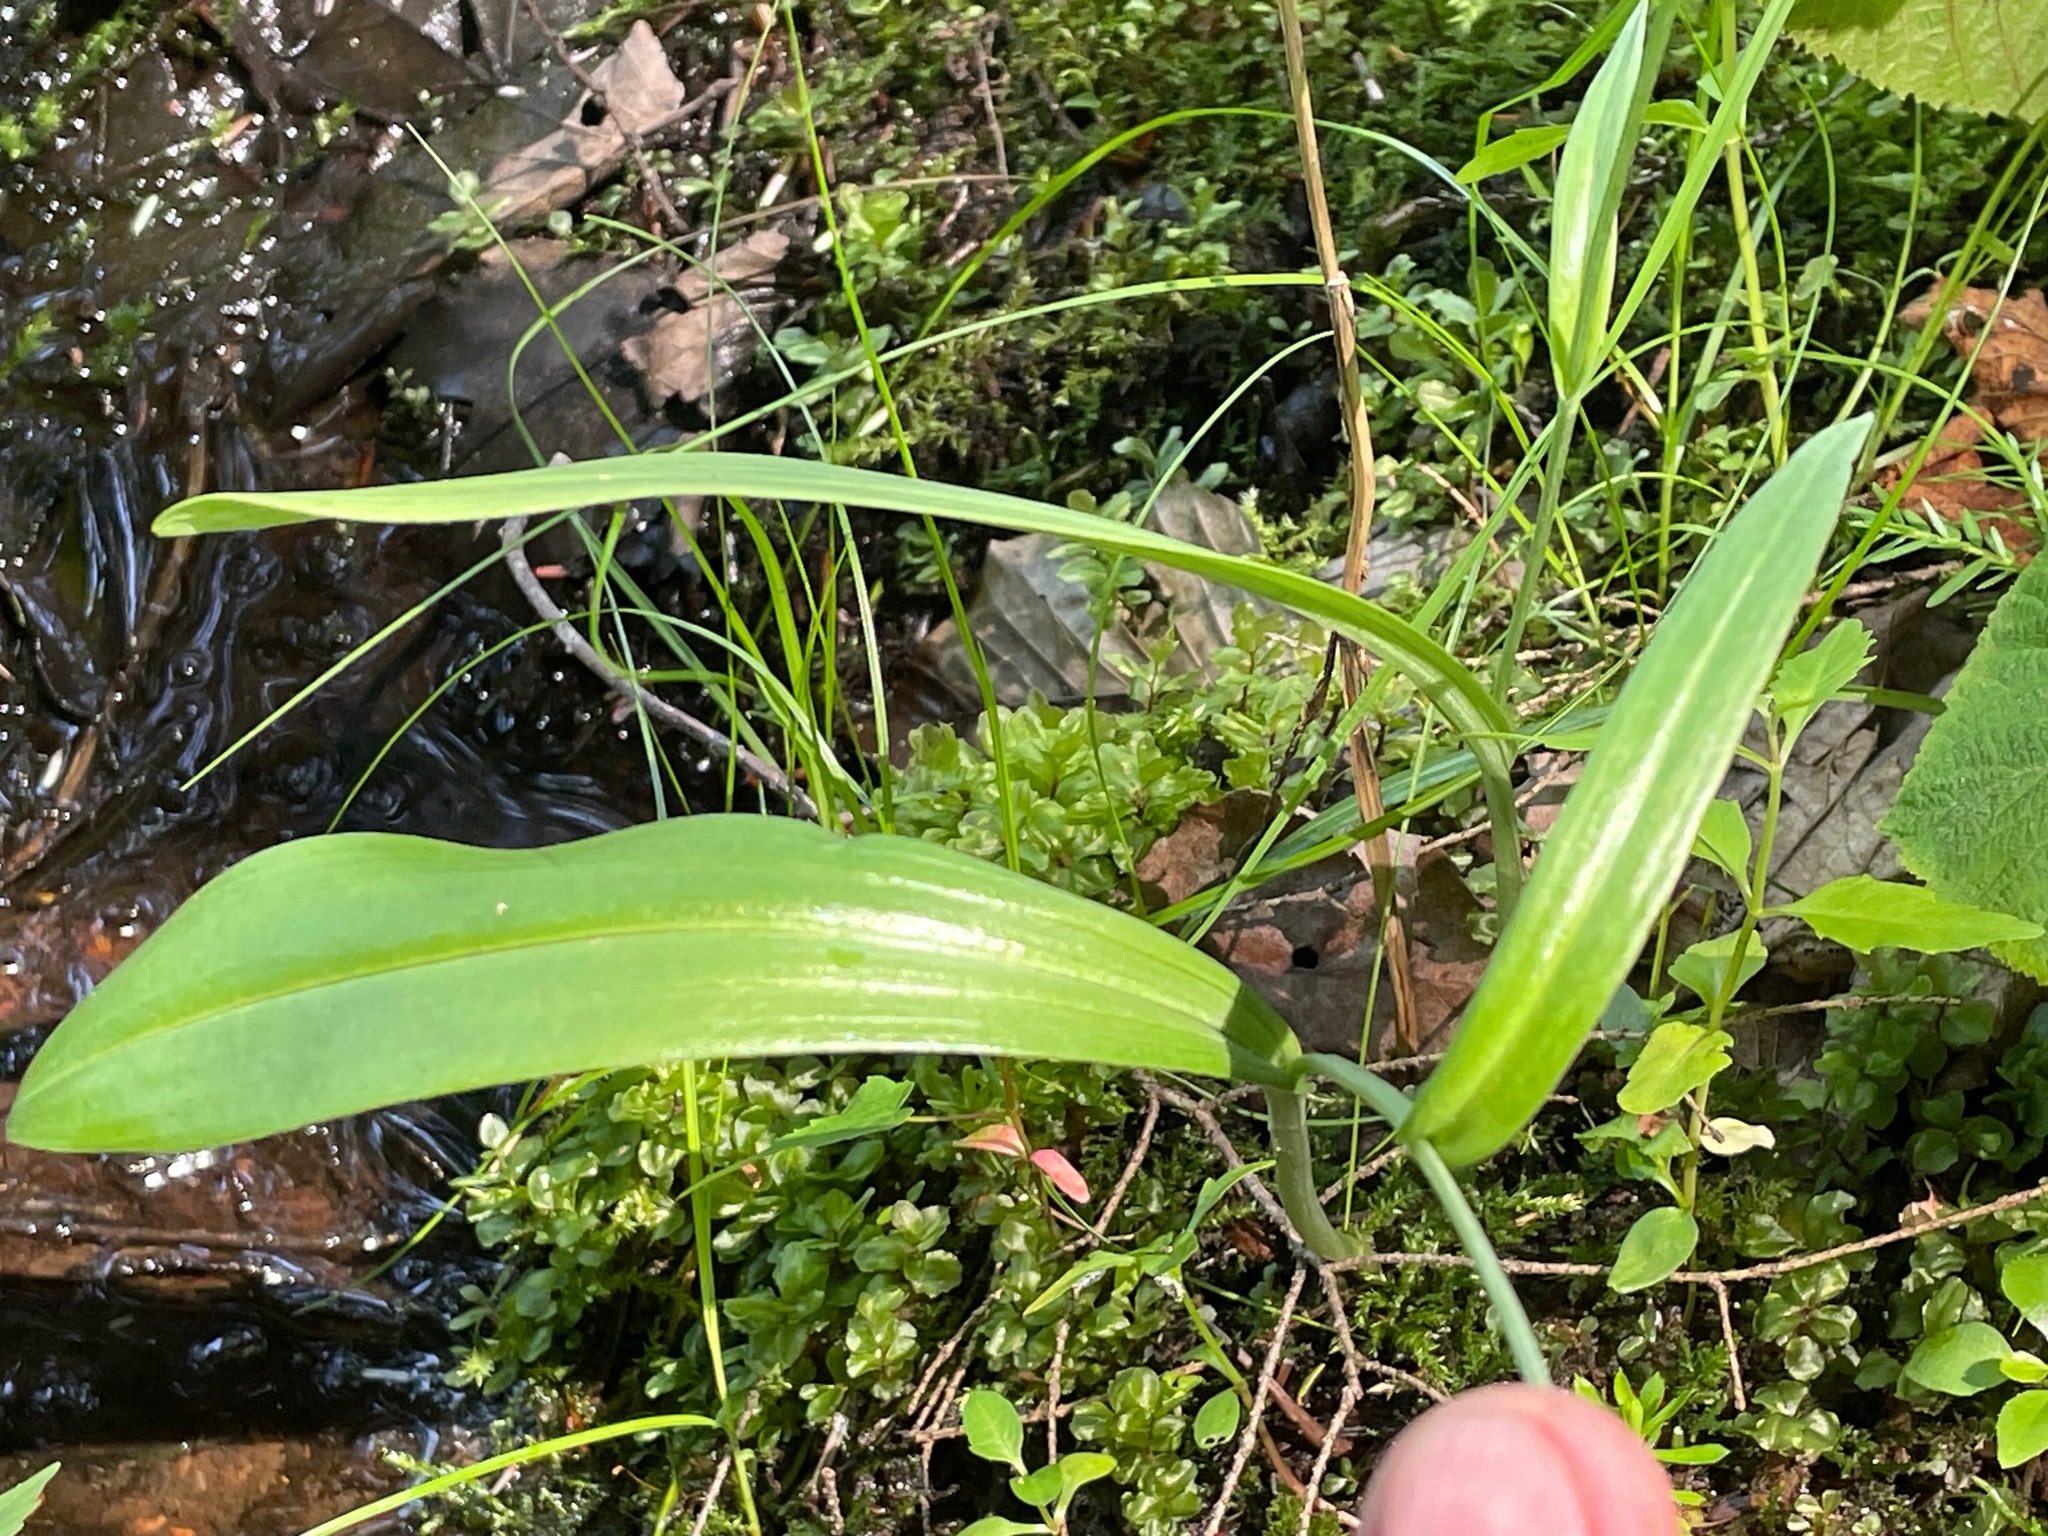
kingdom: Plantae
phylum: Tracheophyta
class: Liliopsida
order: Asparagales
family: Orchidaceae
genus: Platanthera
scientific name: Platanthera clavellata
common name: Club-spur orchid
